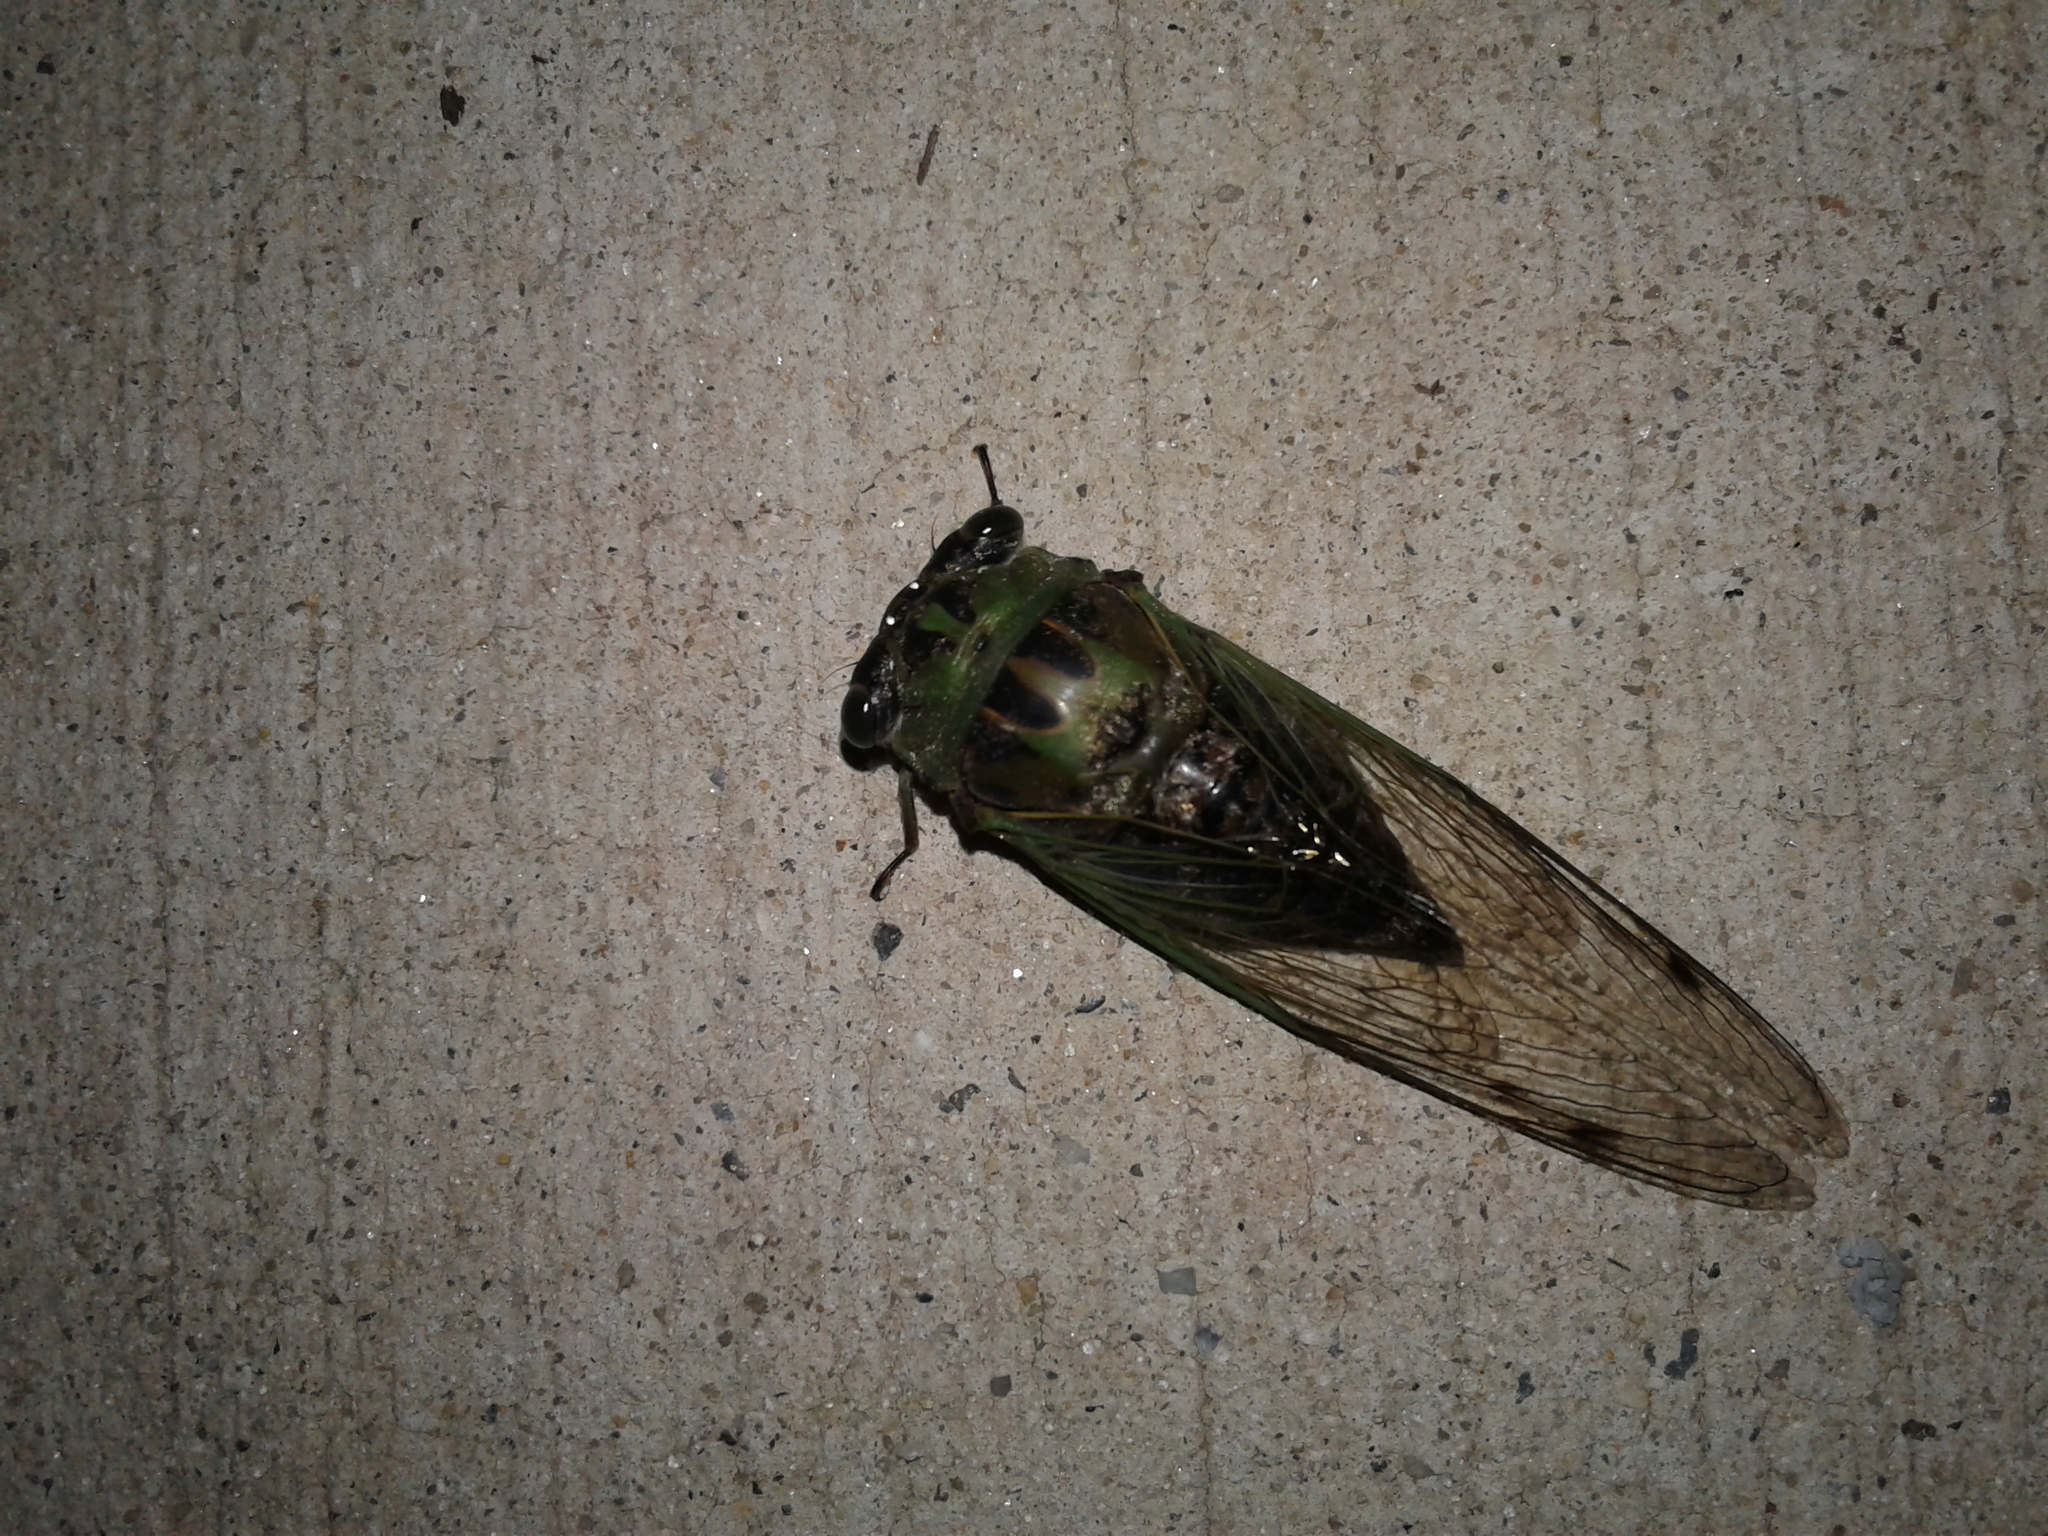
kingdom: Animalia
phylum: Arthropoda
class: Insecta
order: Hemiptera
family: Cicadidae
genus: Neotibicen
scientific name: Neotibicen winnemanna
